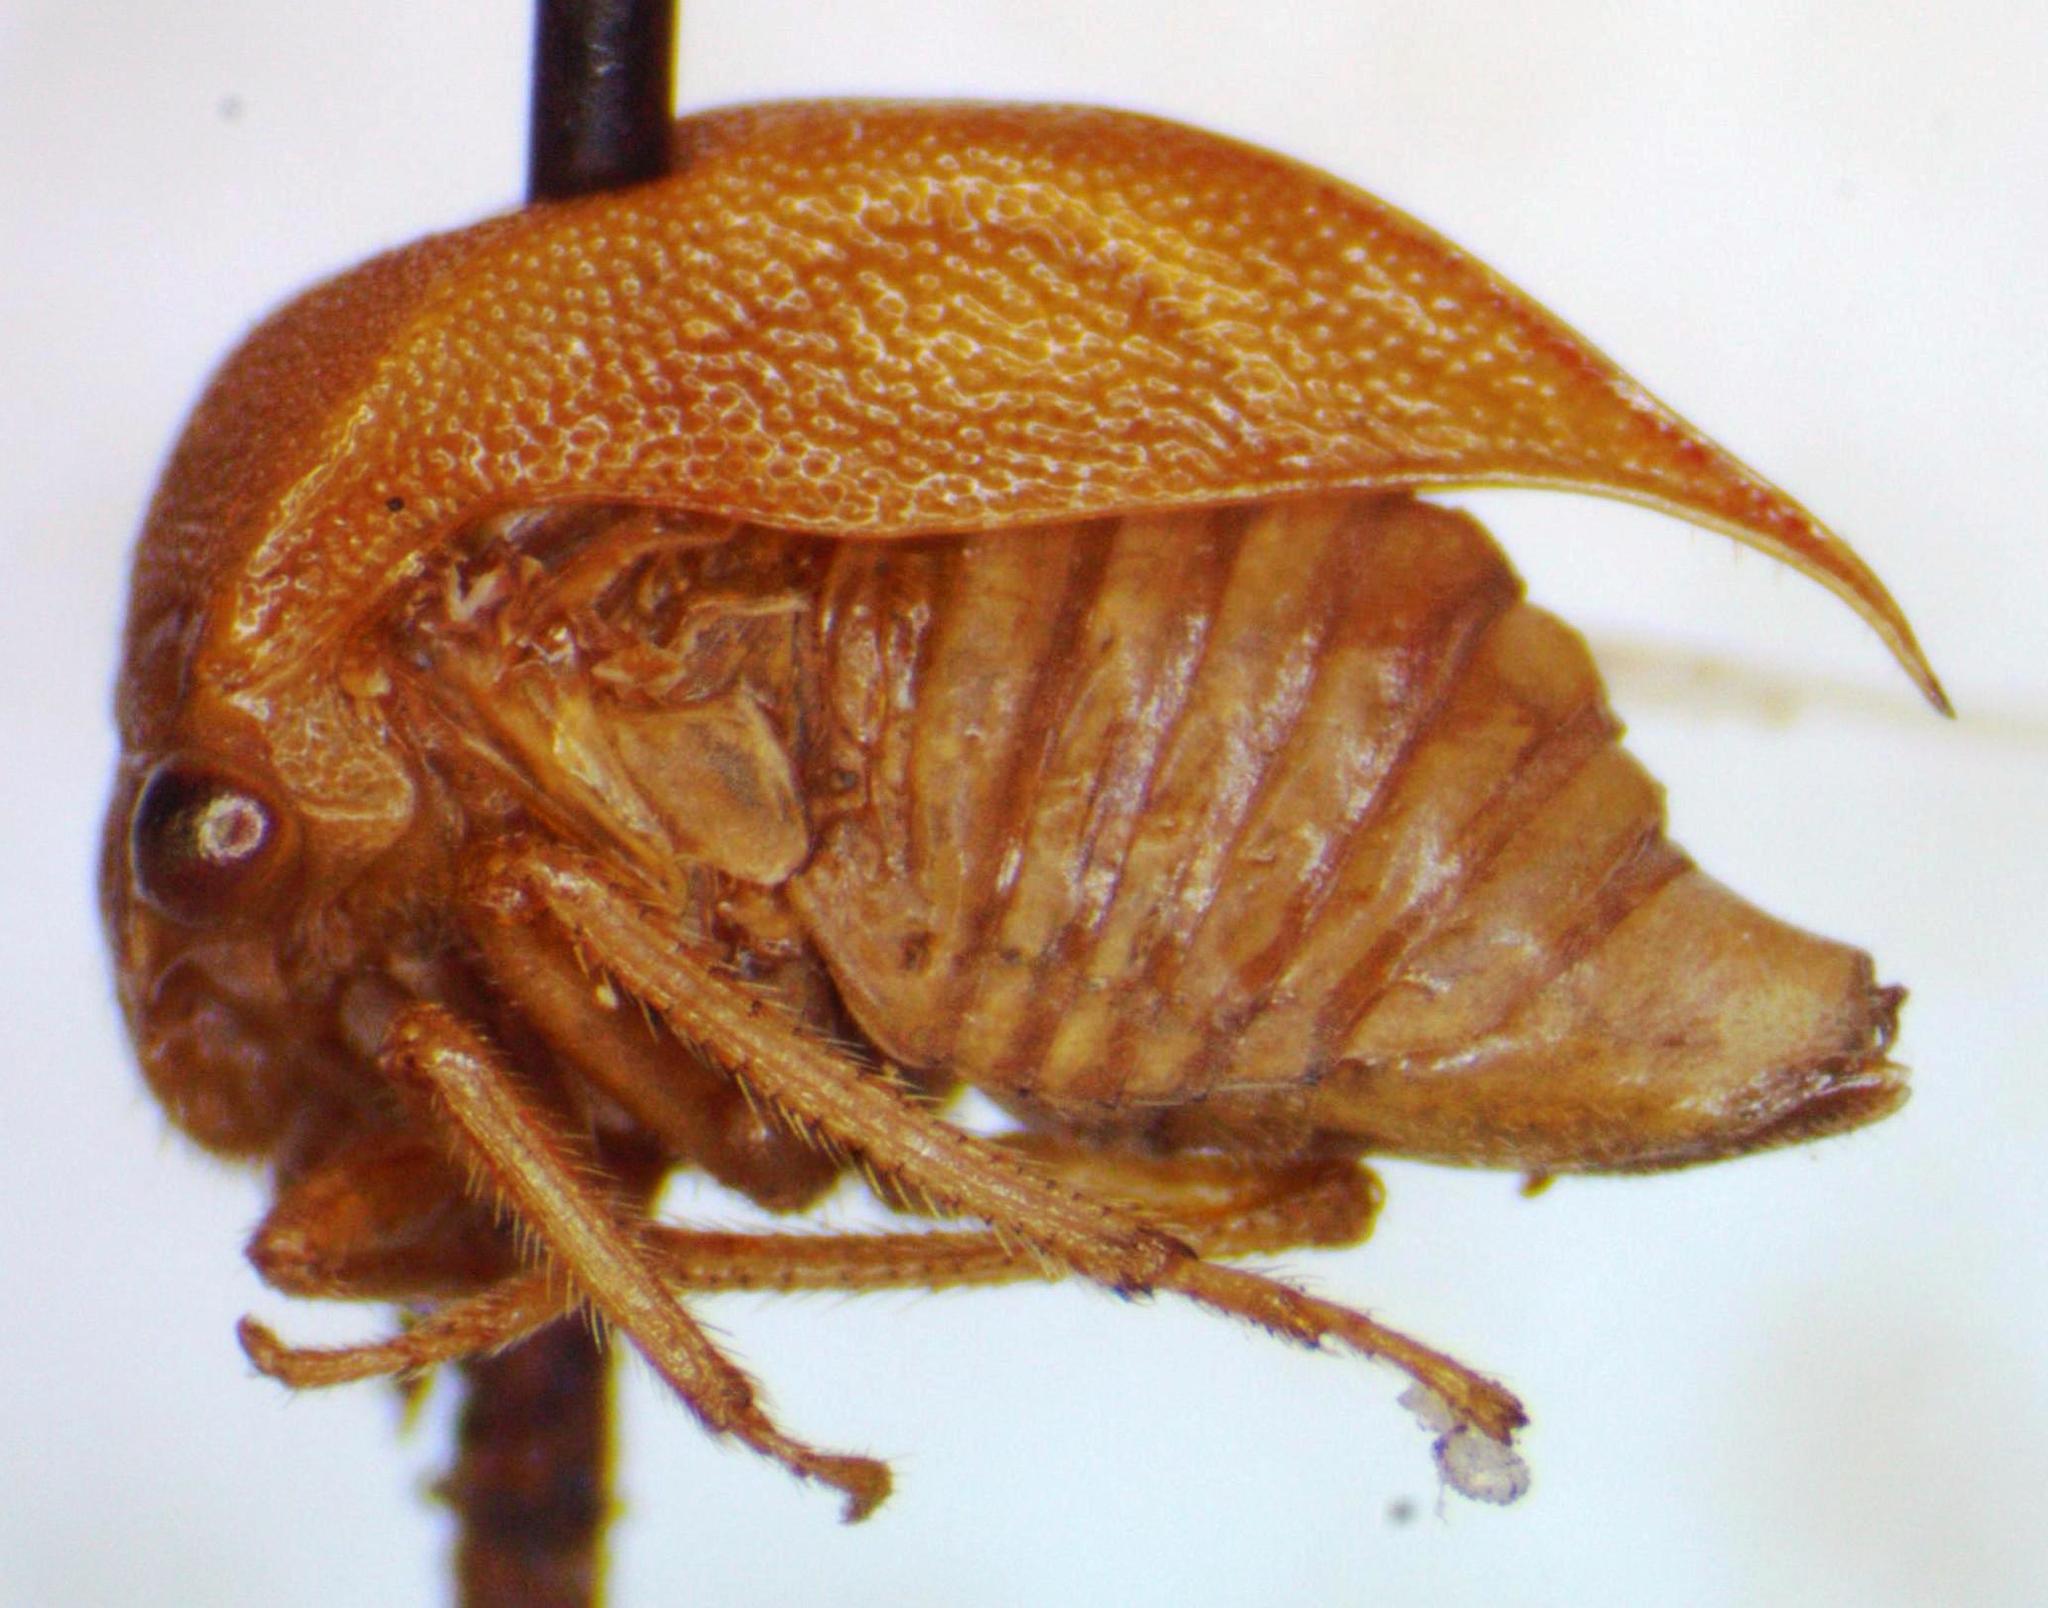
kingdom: Animalia
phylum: Arthropoda
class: Insecta
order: Hemiptera
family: Membracidae
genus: Spissistilus
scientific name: Spissistilus festina
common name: Membracid bug
